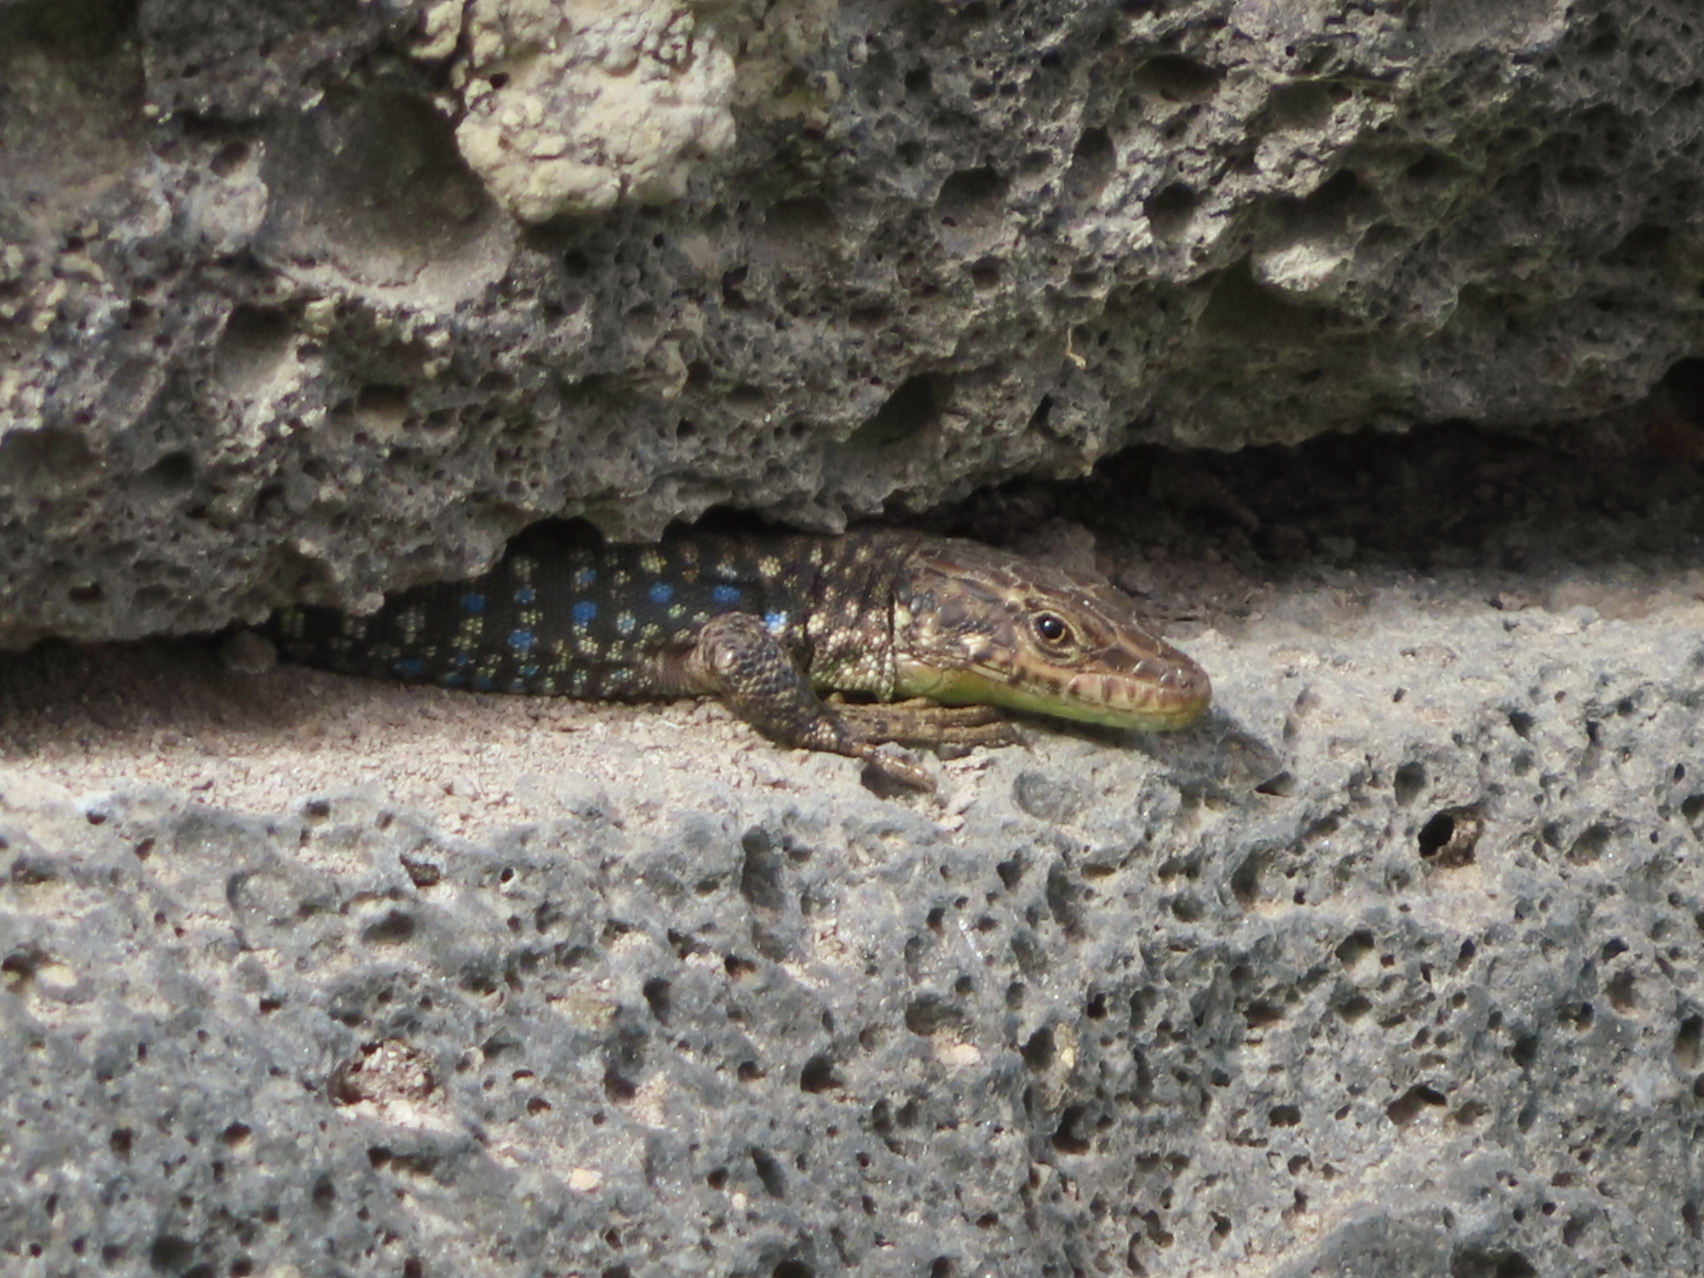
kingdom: Animalia
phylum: Chordata
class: Squamata
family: Lacertidae
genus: Darevskia
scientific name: Darevskia
